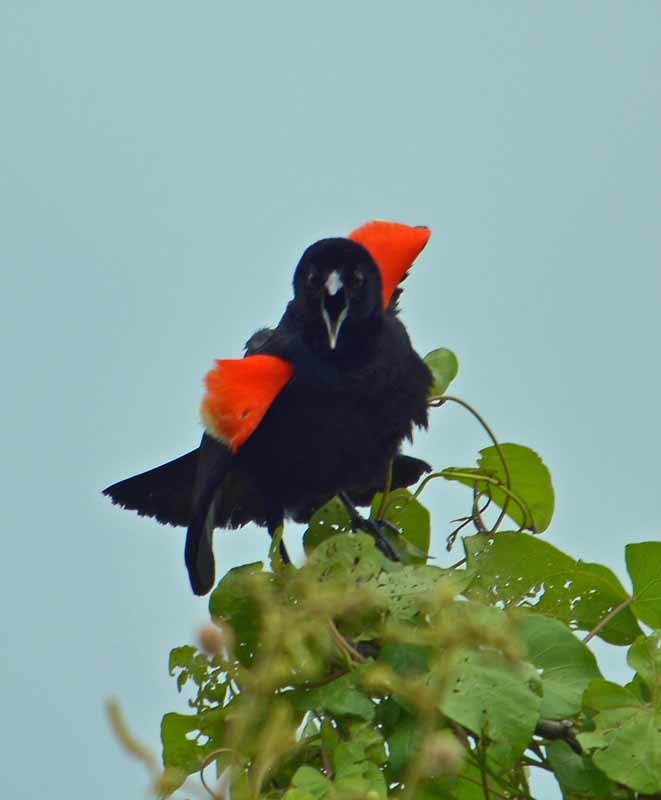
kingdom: Animalia
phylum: Chordata
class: Aves
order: Passeriformes
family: Icteridae
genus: Agelaius
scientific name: Agelaius phoeniceus
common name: Red-winged blackbird
